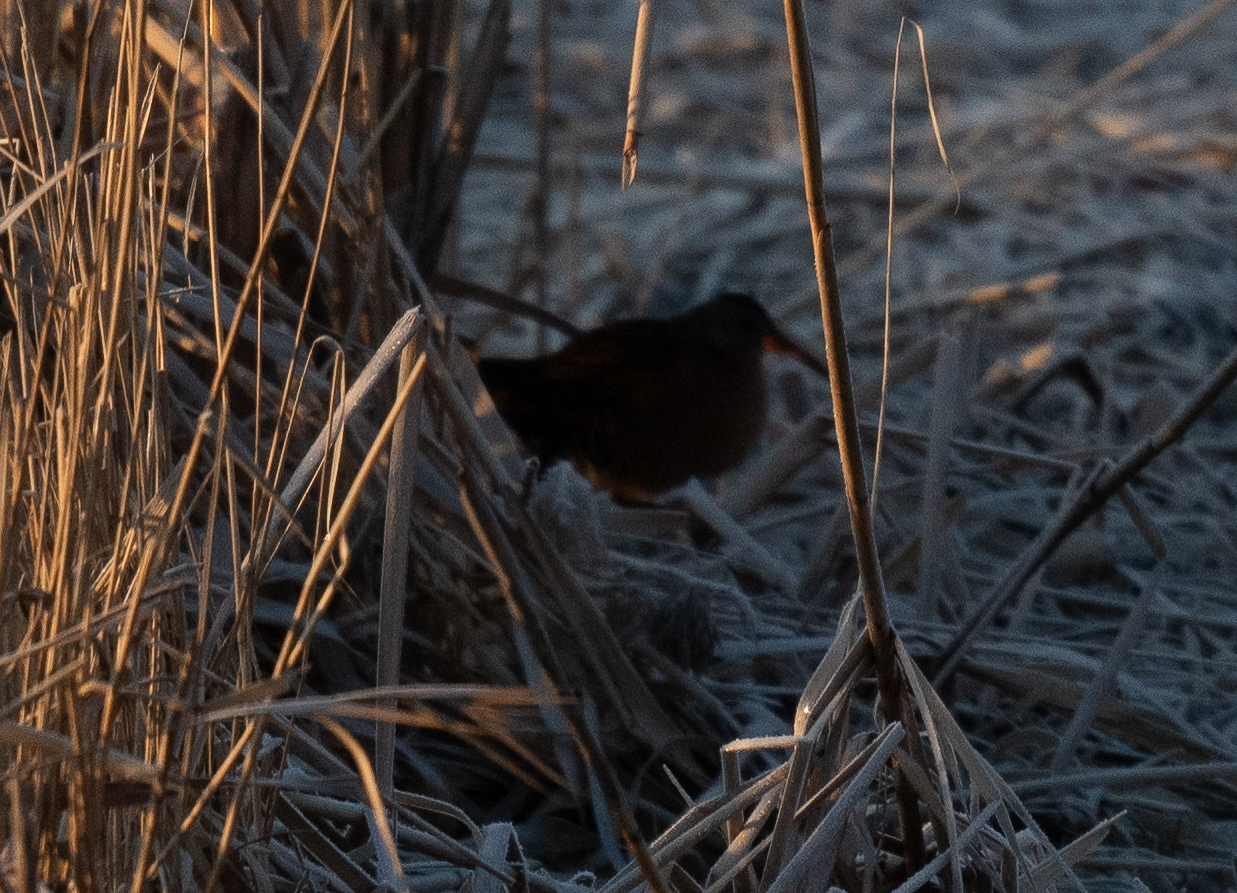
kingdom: Animalia
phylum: Chordata
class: Aves
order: Gruiformes
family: Rallidae
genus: Rallus
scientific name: Rallus limicola
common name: Virginia rail
